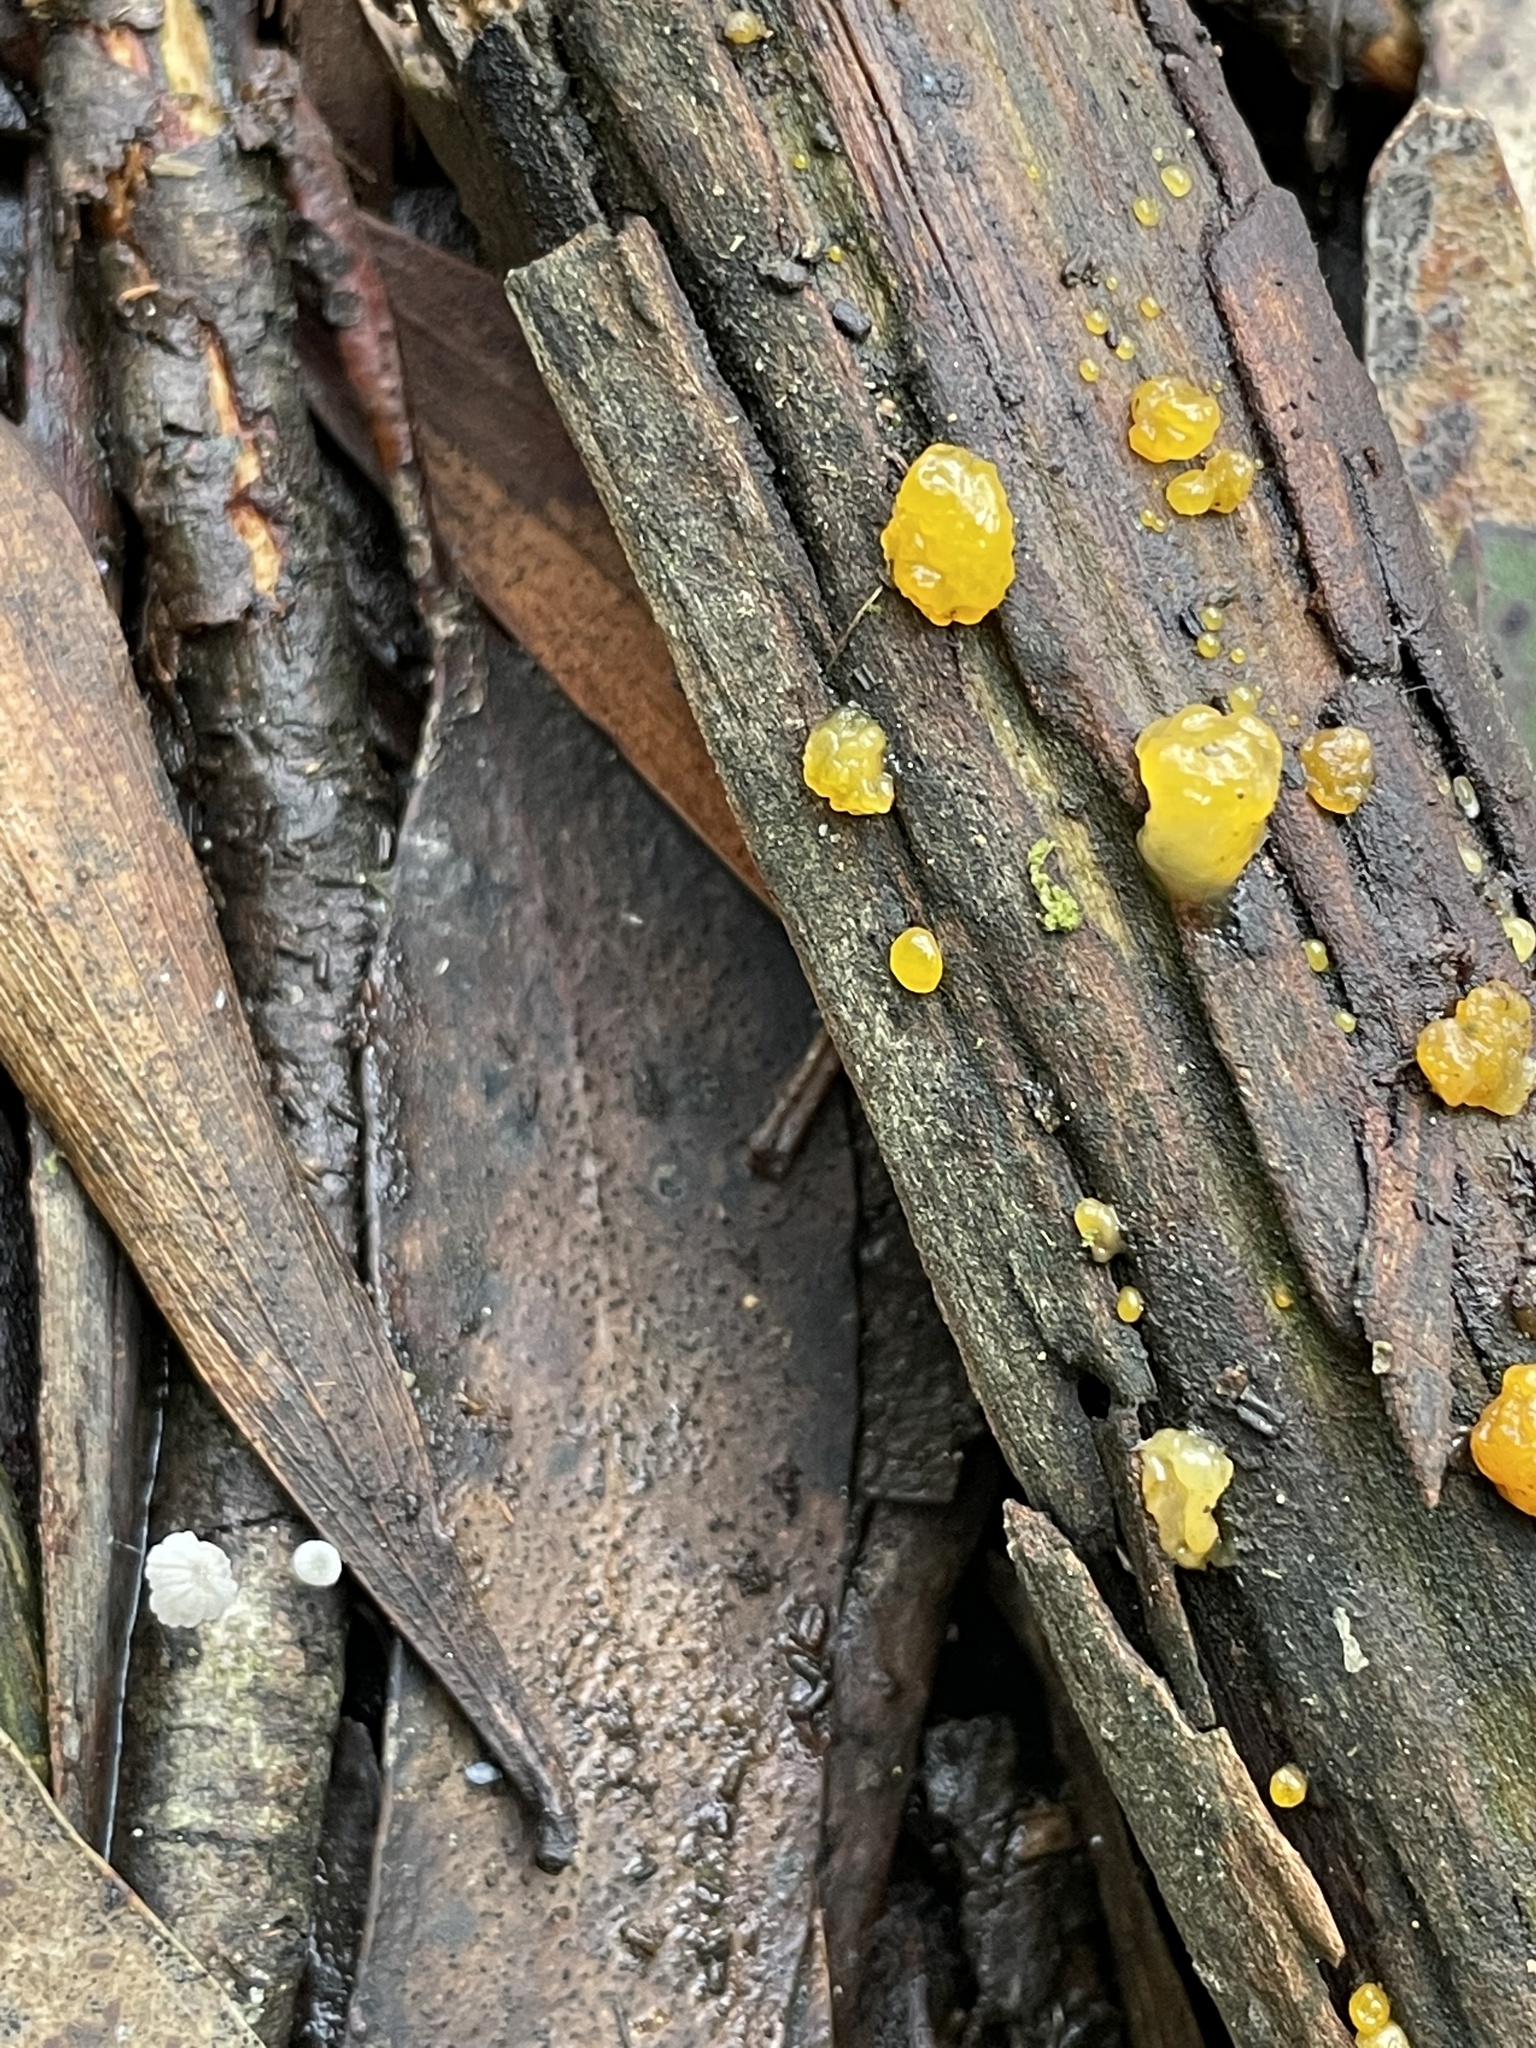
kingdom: Fungi
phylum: Basidiomycota
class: Dacrymycetes
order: Dacrymycetales
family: Dacrymycetaceae
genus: Dacrymyces
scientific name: Dacrymyces stillatus
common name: Common jelly spot
